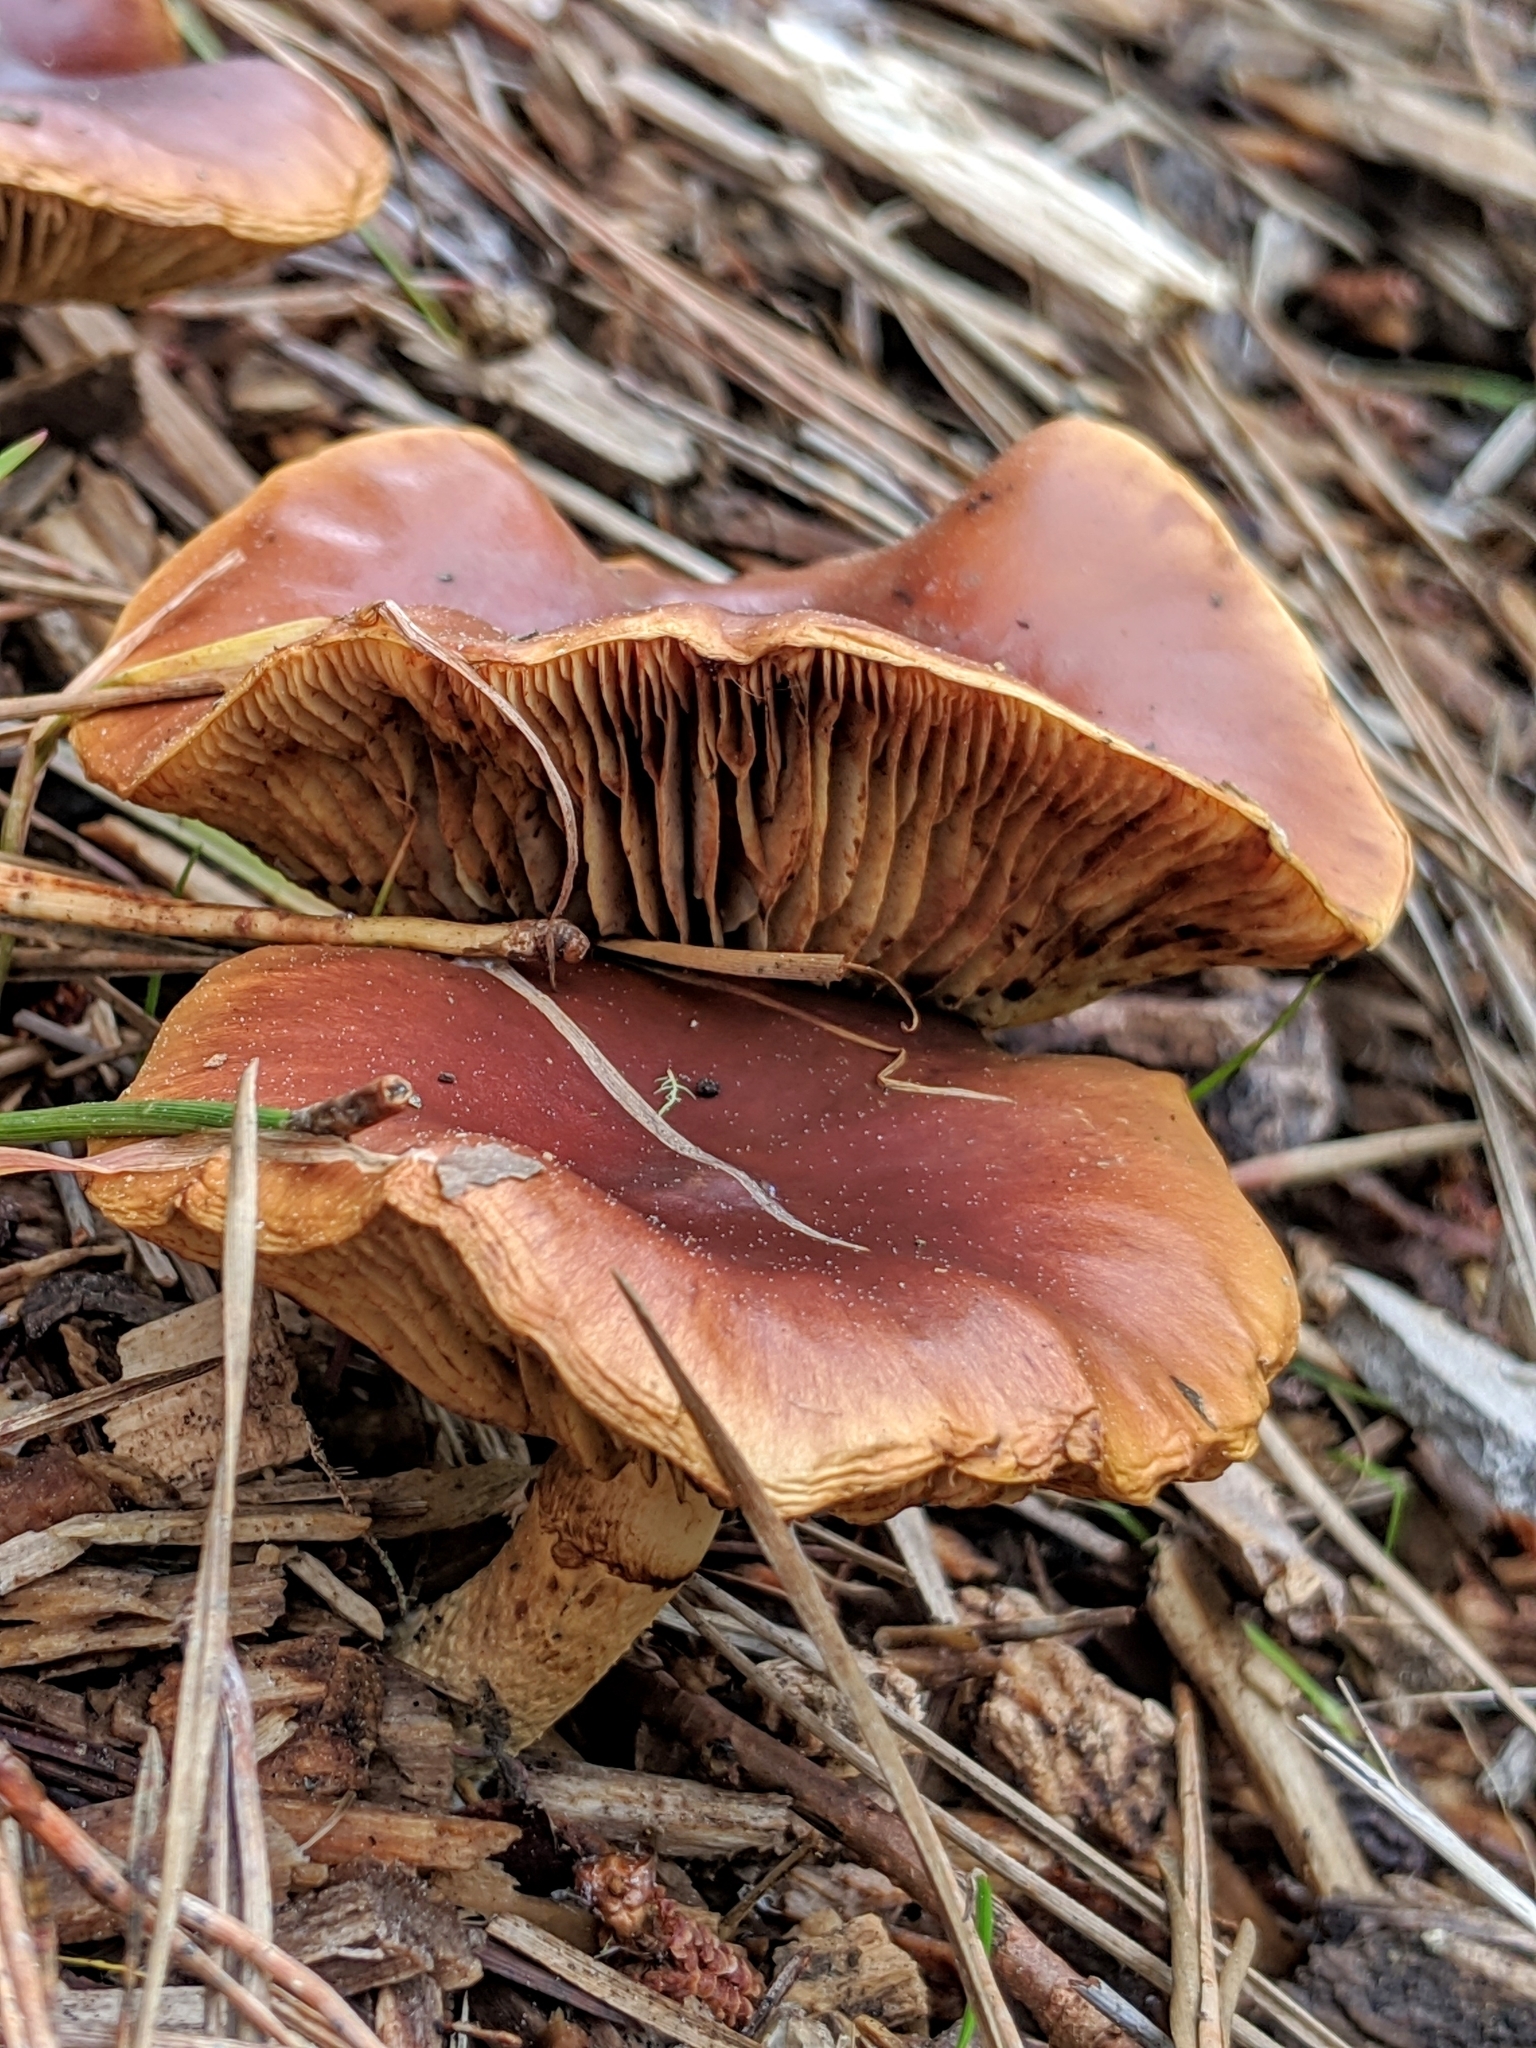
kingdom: Fungi
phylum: Basidiomycota
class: Agaricomycetes
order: Agaricales
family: Strophariaceae
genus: Pholiota
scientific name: Pholiota velaglutinosa
